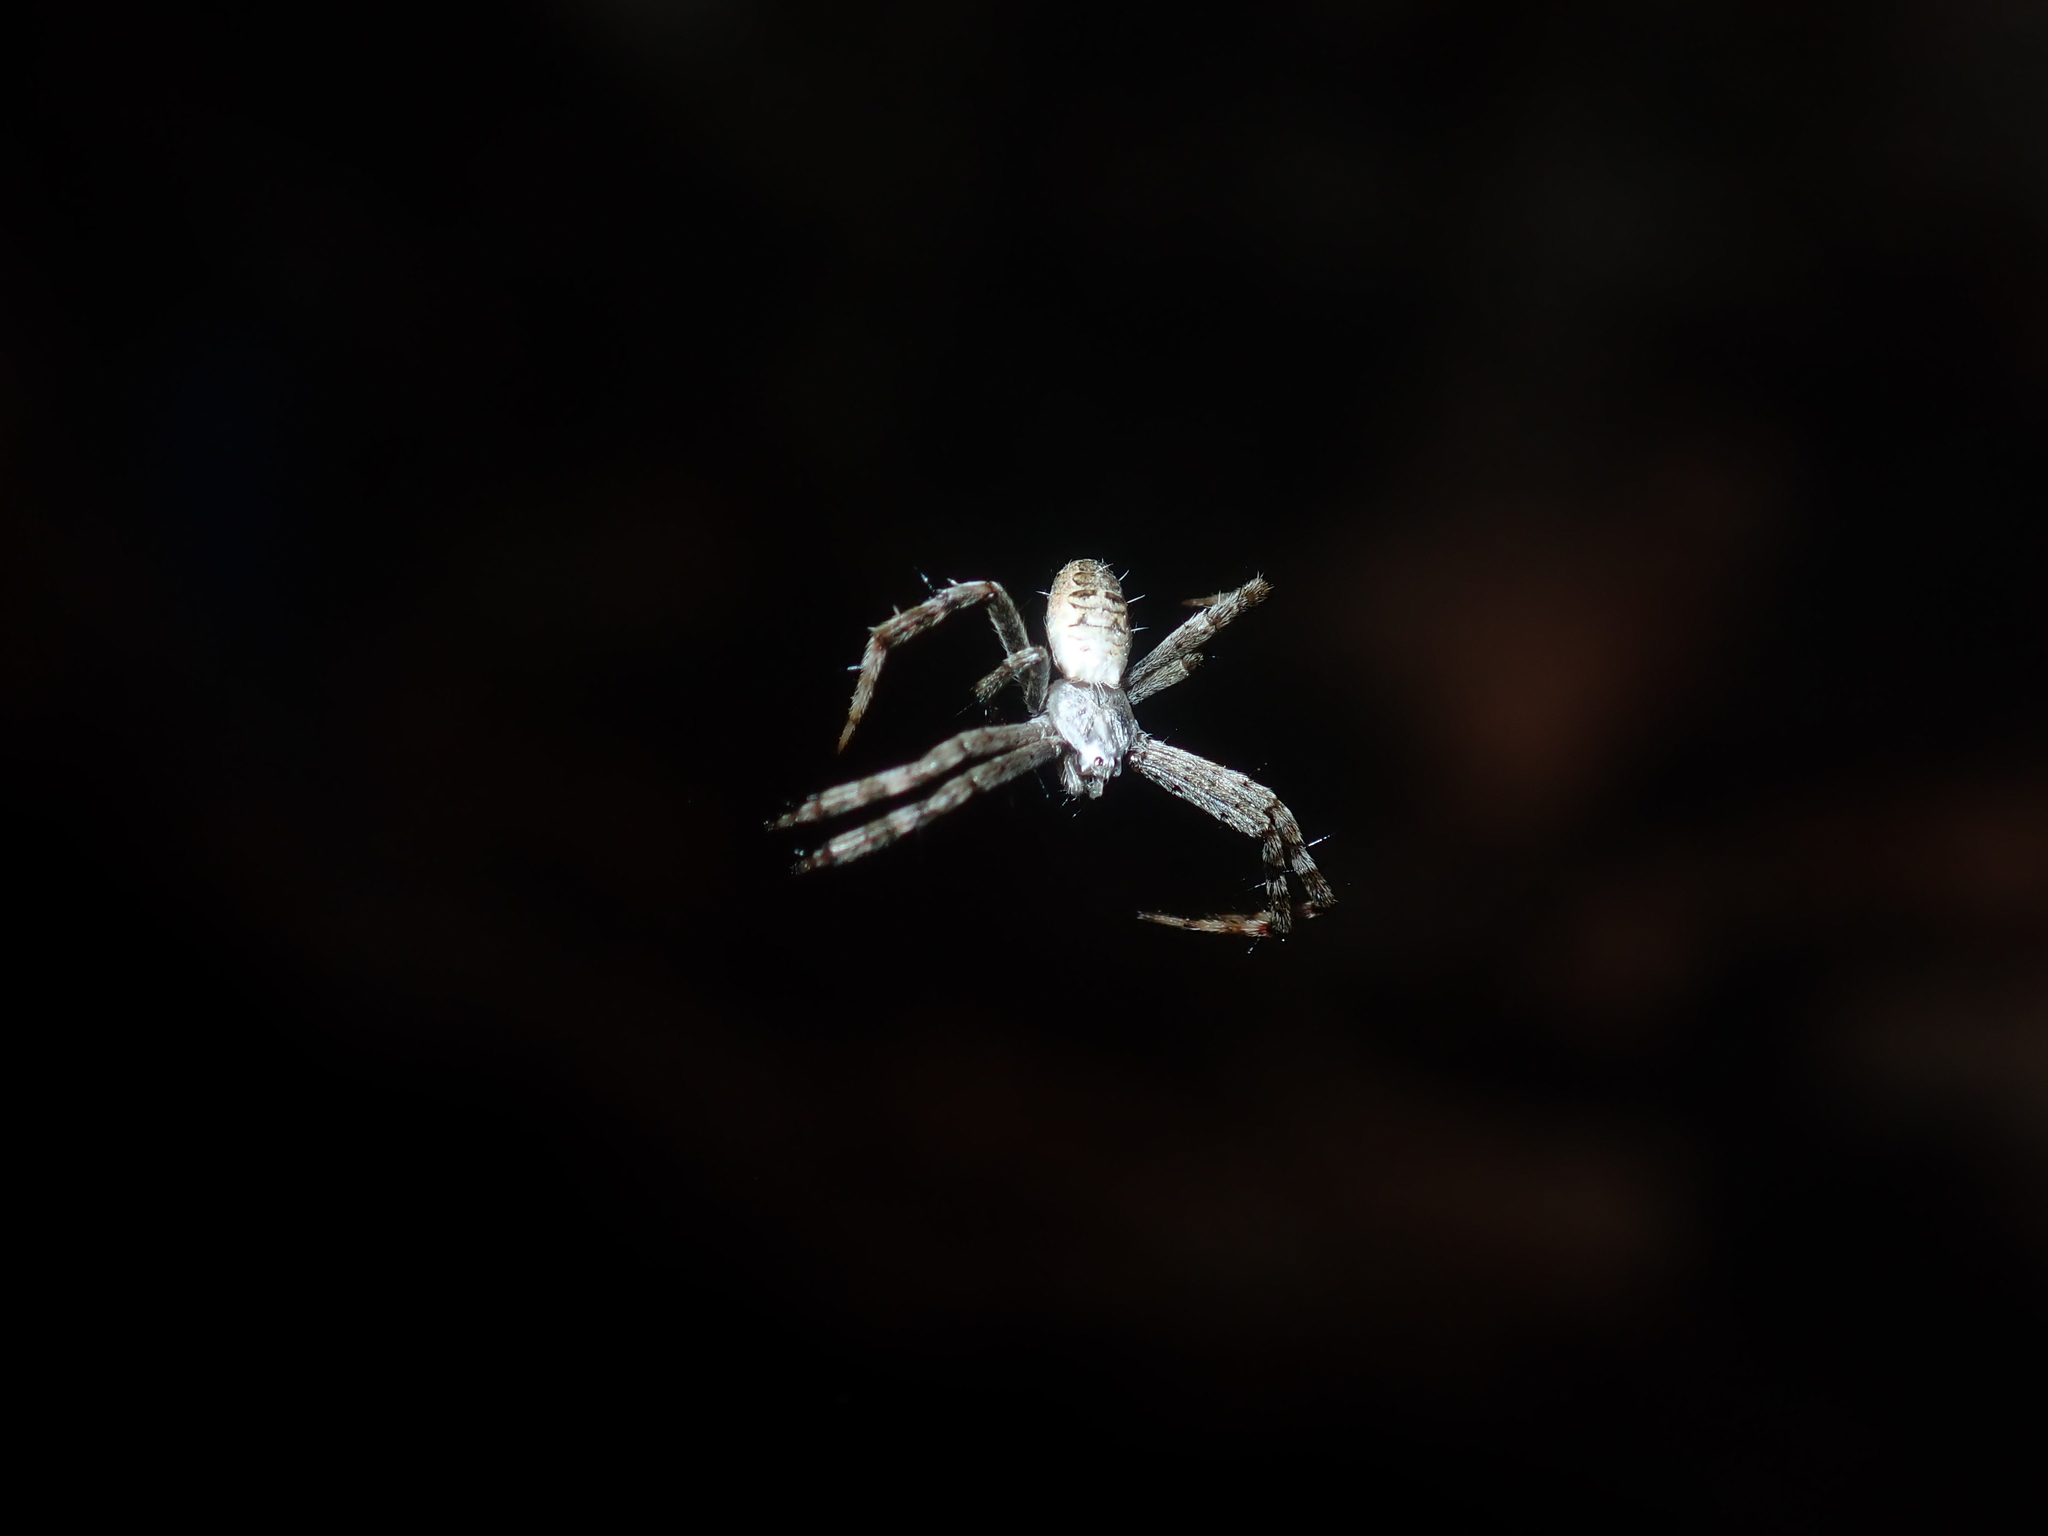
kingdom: Animalia
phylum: Arthropoda
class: Arachnida
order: Araneae
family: Araneidae
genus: Argiope
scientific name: Argiope keyserlingi
